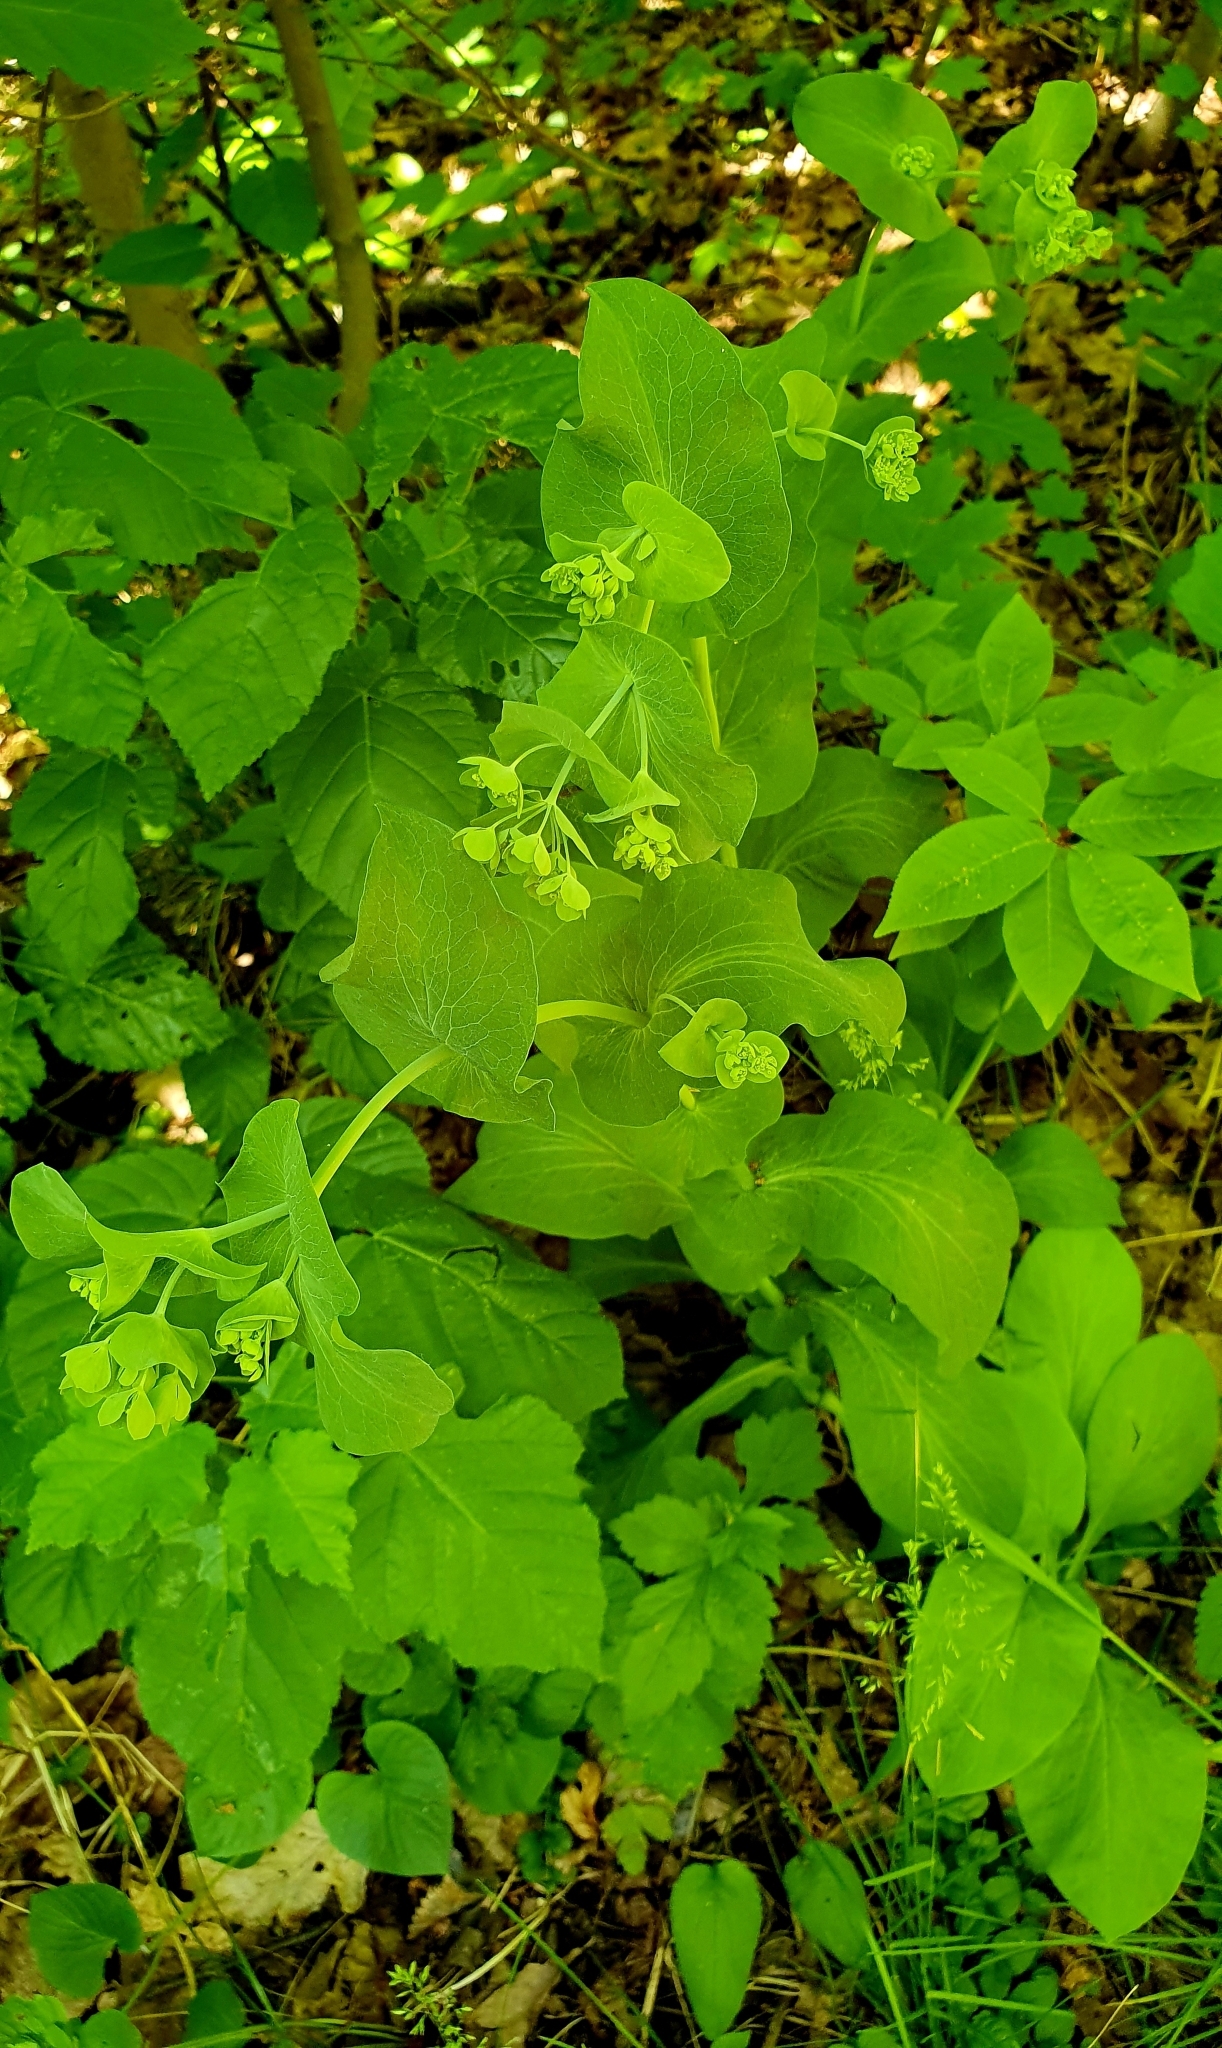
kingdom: Plantae
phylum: Tracheophyta
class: Magnoliopsida
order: Apiales
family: Apiaceae
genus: Bupleurum
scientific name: Bupleurum aureum
